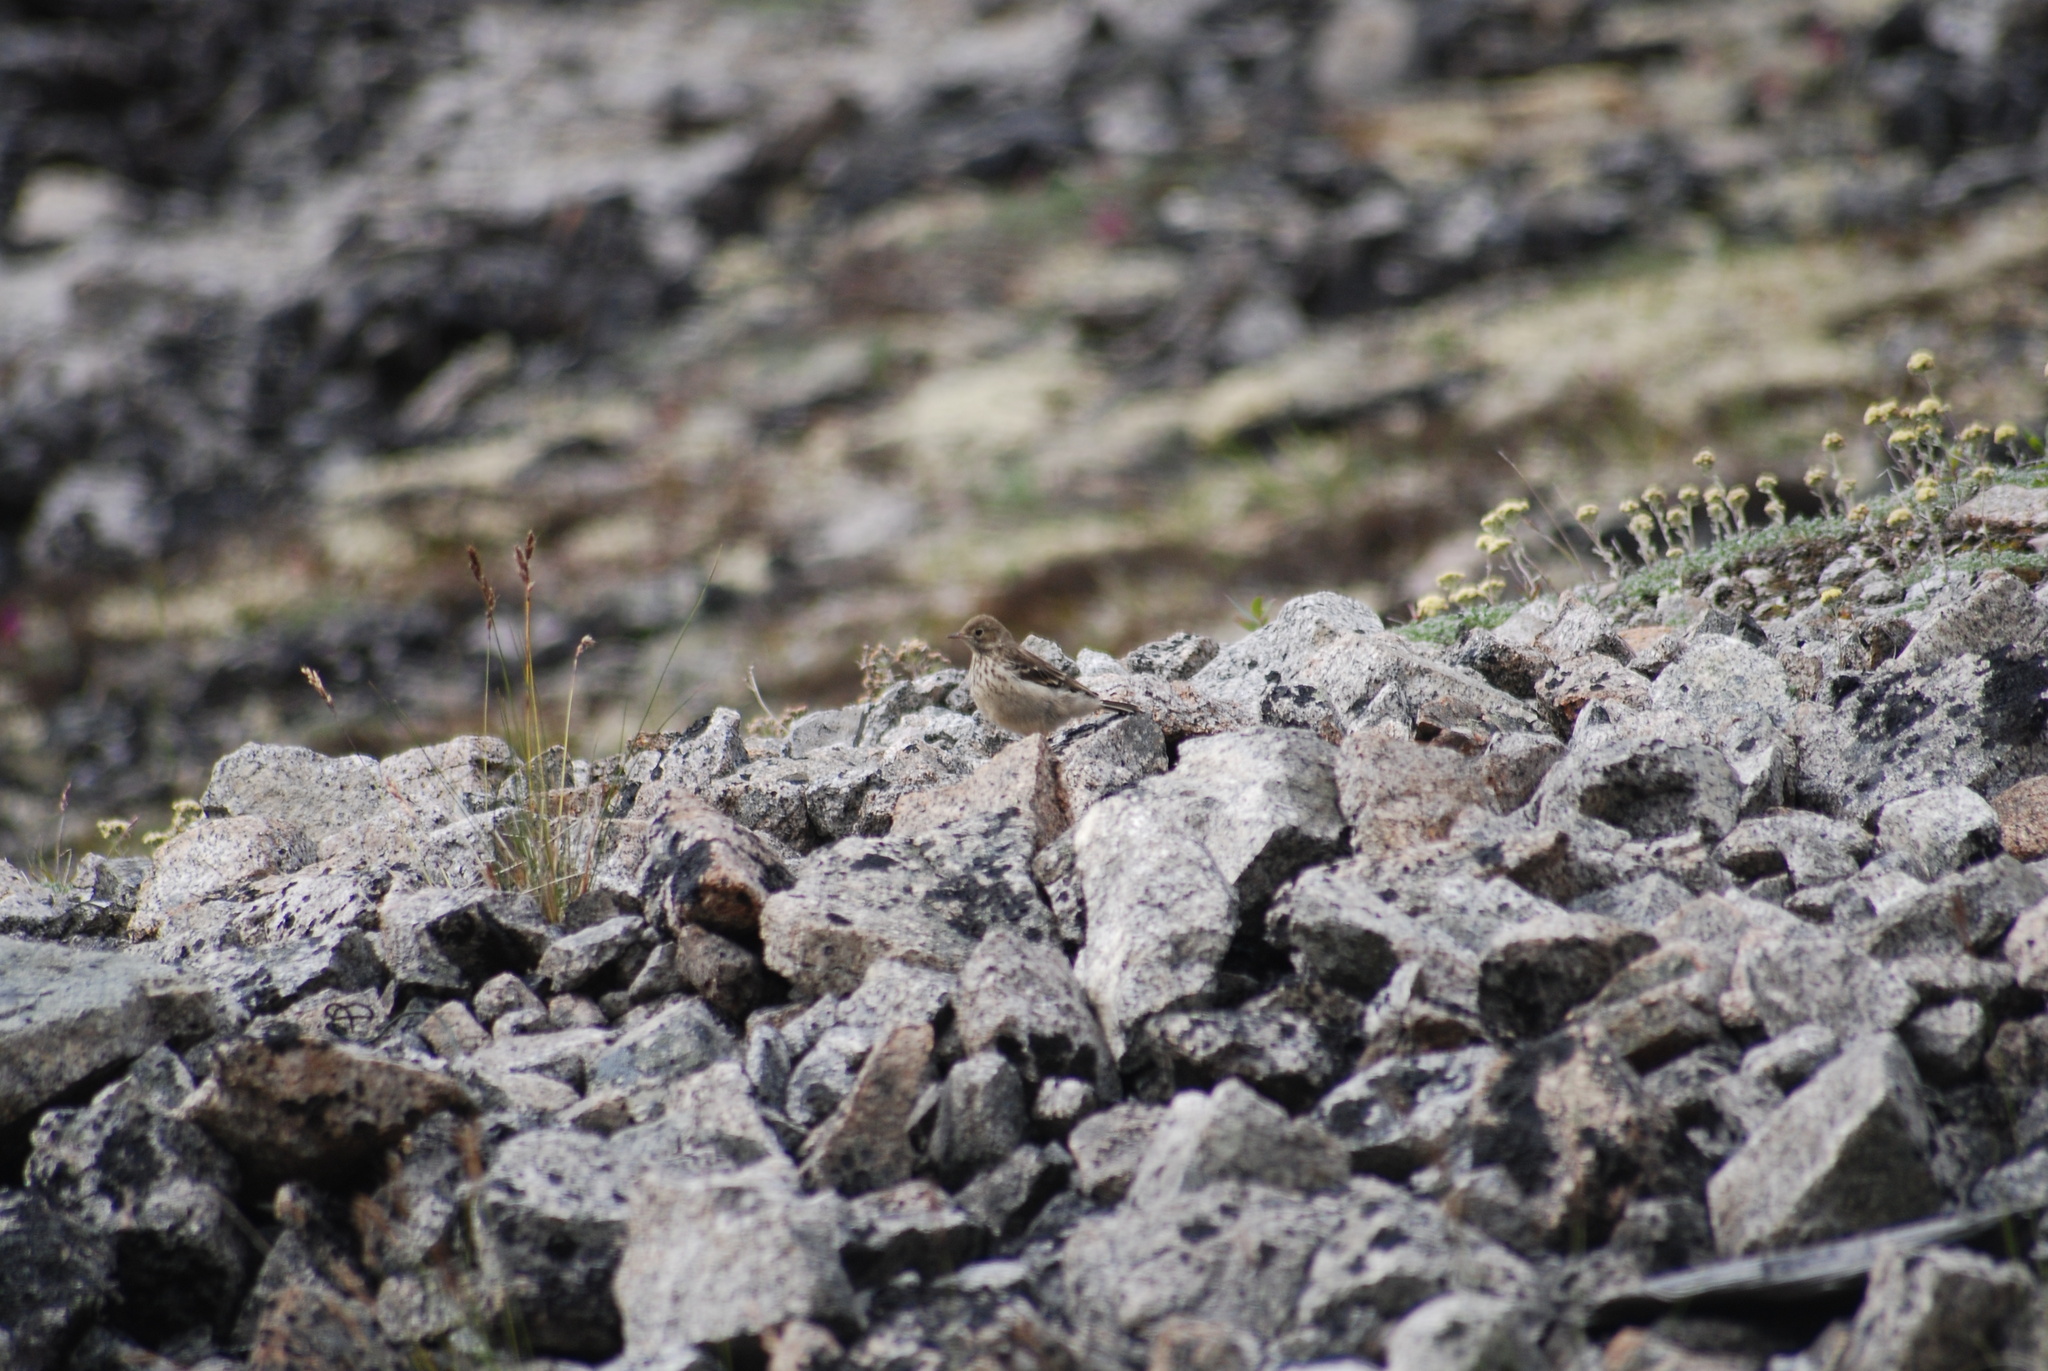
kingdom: Animalia
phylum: Chordata
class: Aves
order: Passeriformes
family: Motacillidae
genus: Anthus
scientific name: Anthus rubescens
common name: Buff-bellied pipit
